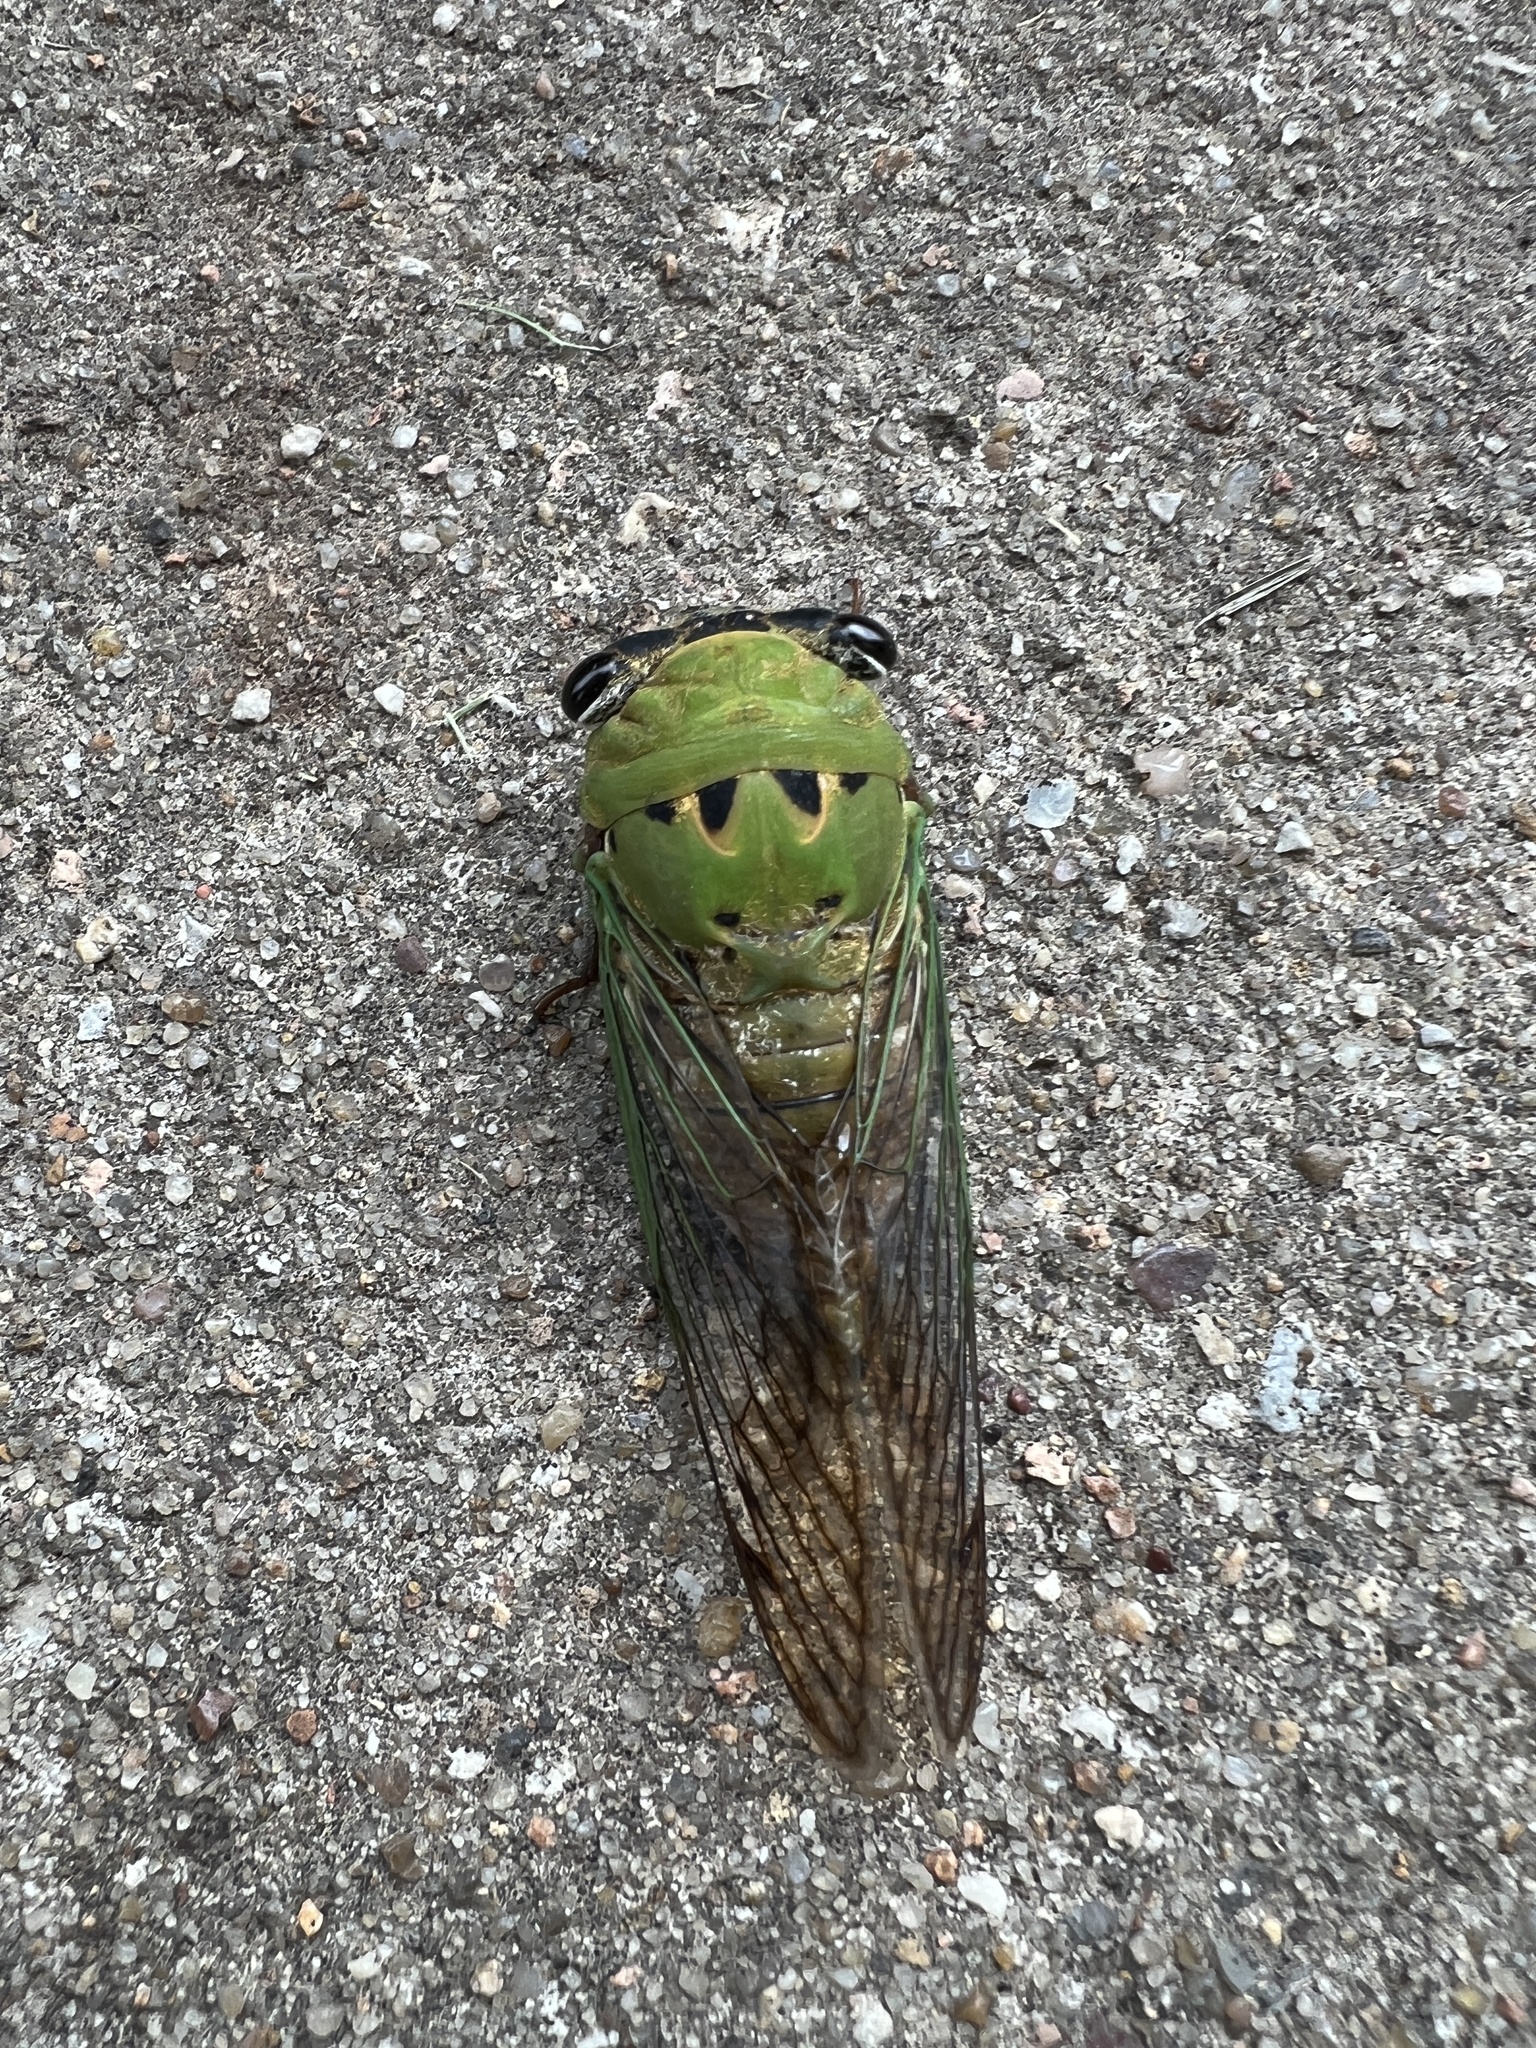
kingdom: Animalia
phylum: Arthropoda
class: Insecta
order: Hemiptera
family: Cicadidae
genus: Neotibicen
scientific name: Neotibicen superbus
